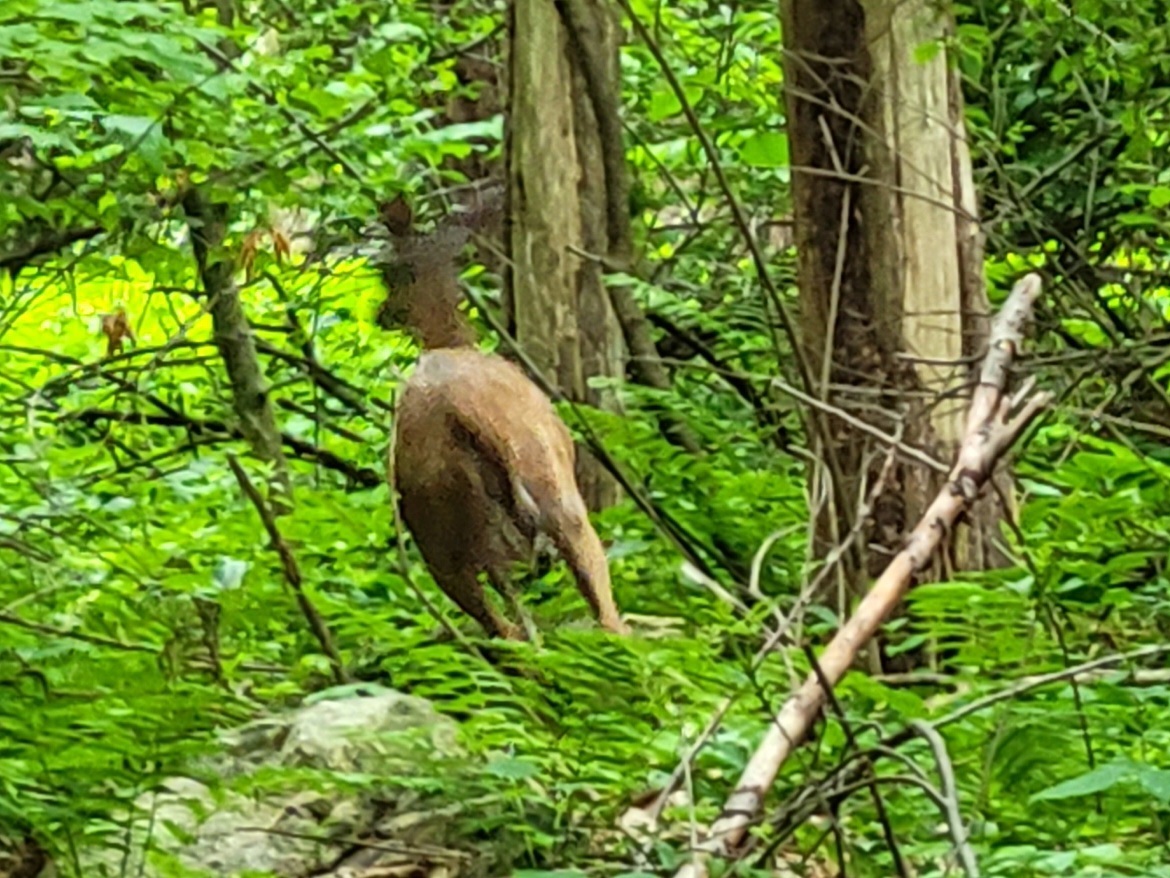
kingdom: Animalia
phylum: Chordata
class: Mammalia
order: Artiodactyla
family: Cervidae
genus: Odocoileus
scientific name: Odocoileus virginianus
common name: White-tailed deer
